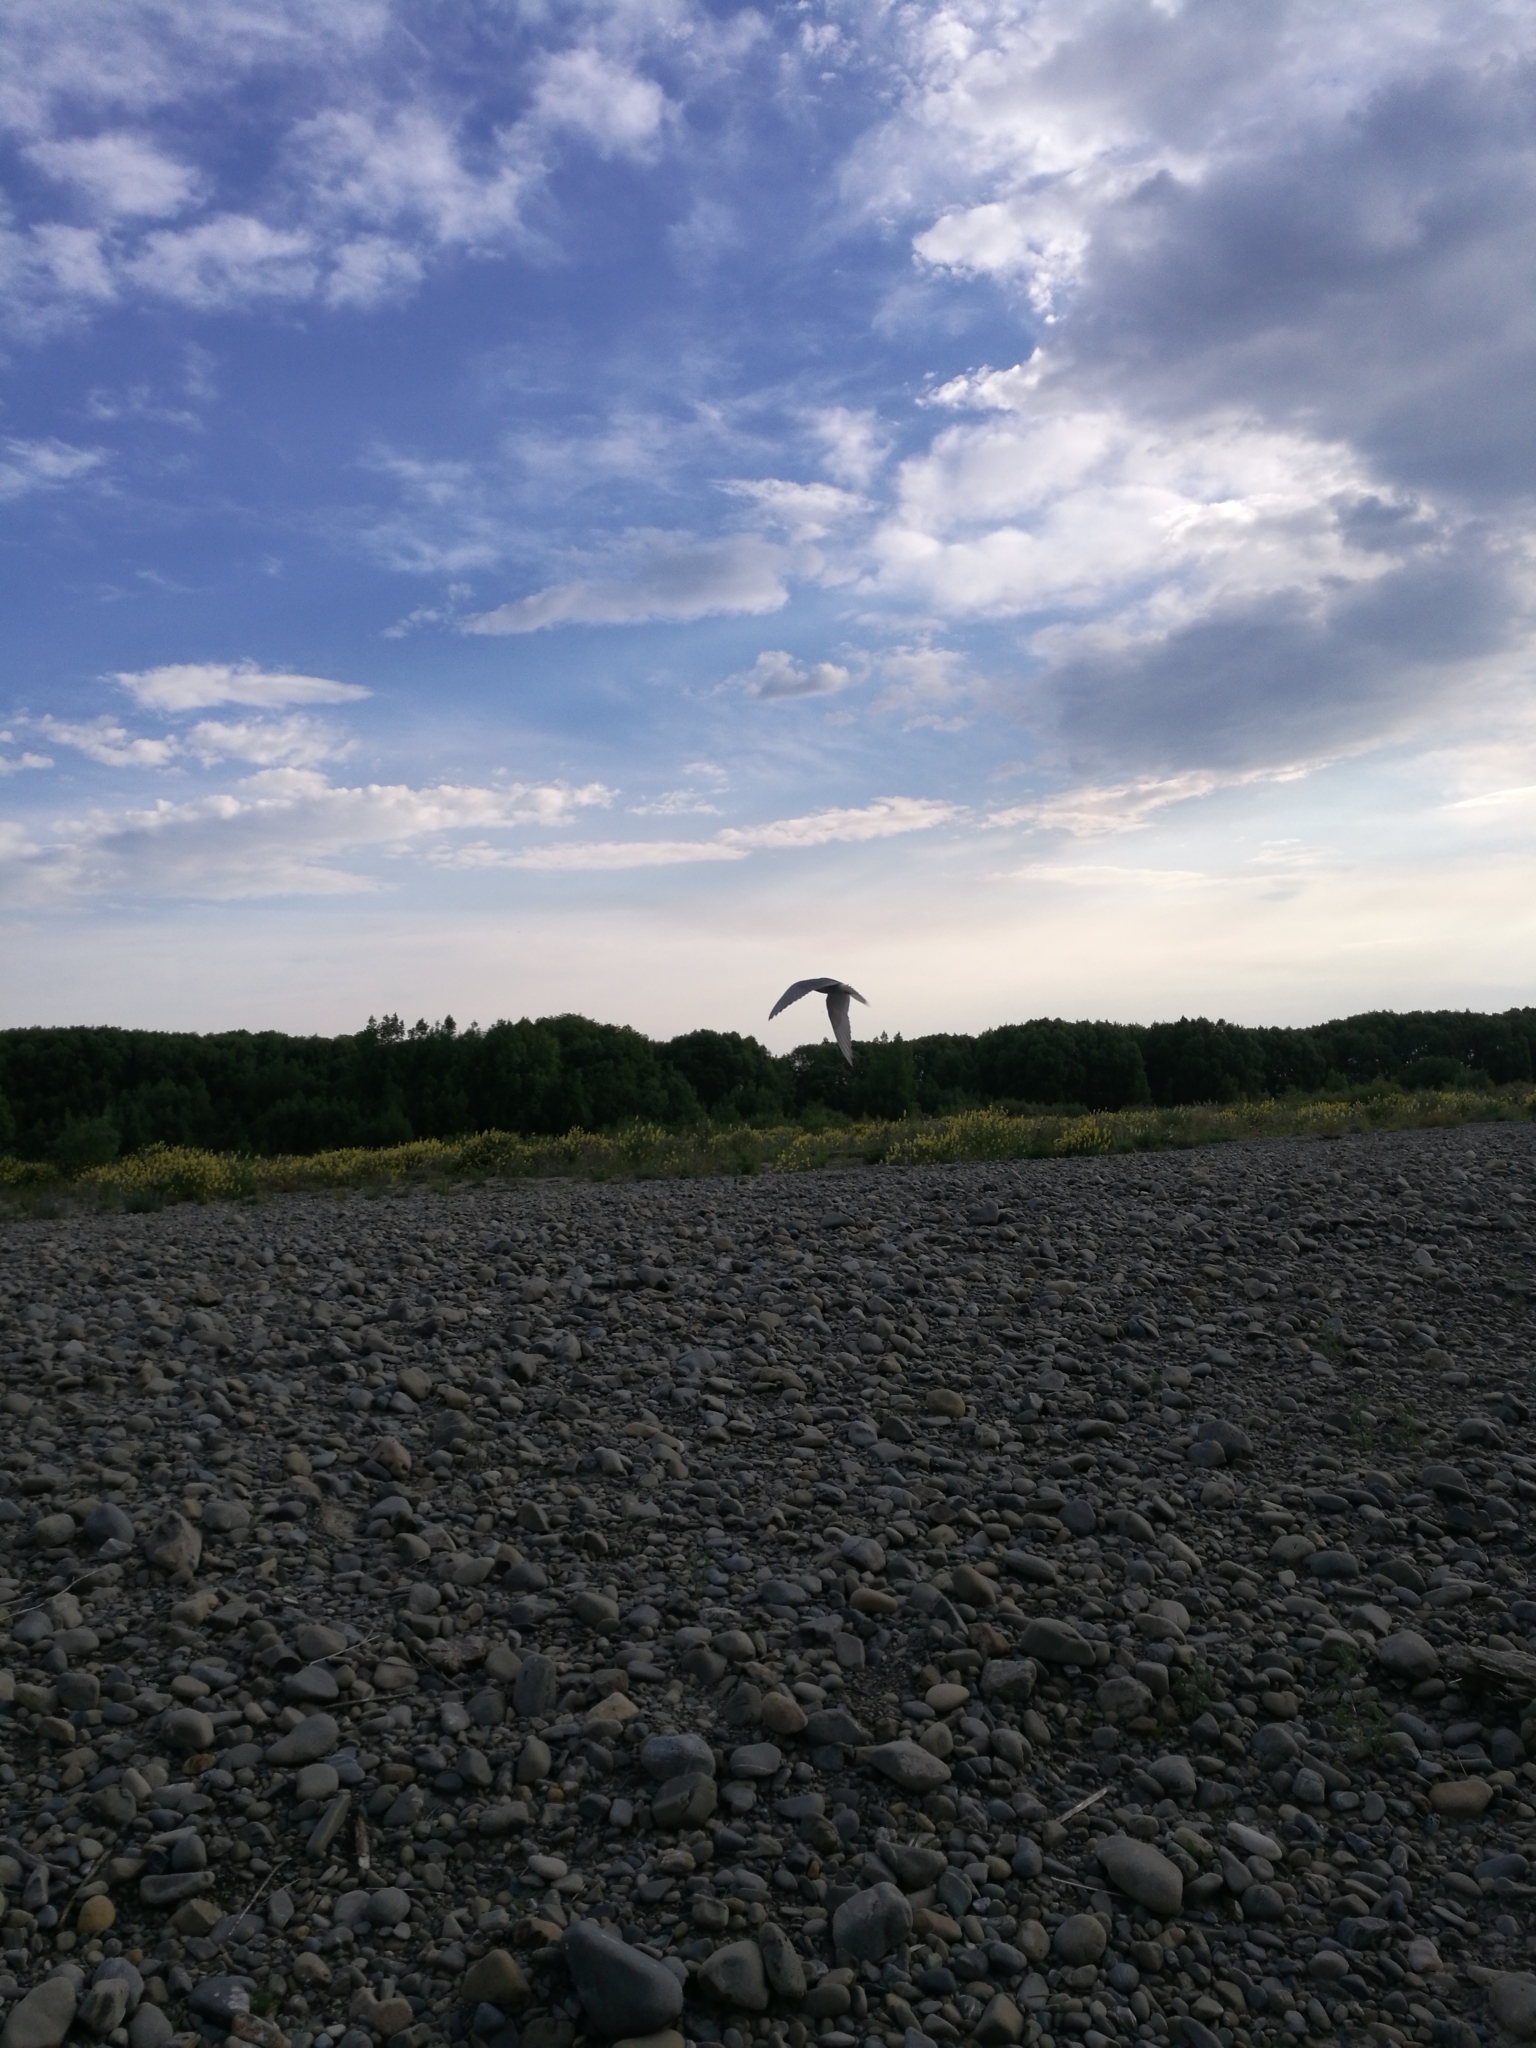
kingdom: Animalia
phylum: Chordata
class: Aves
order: Charadriiformes
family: Laridae
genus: Chlidonias
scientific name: Chlidonias albostriatus
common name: Black-fronted tern
